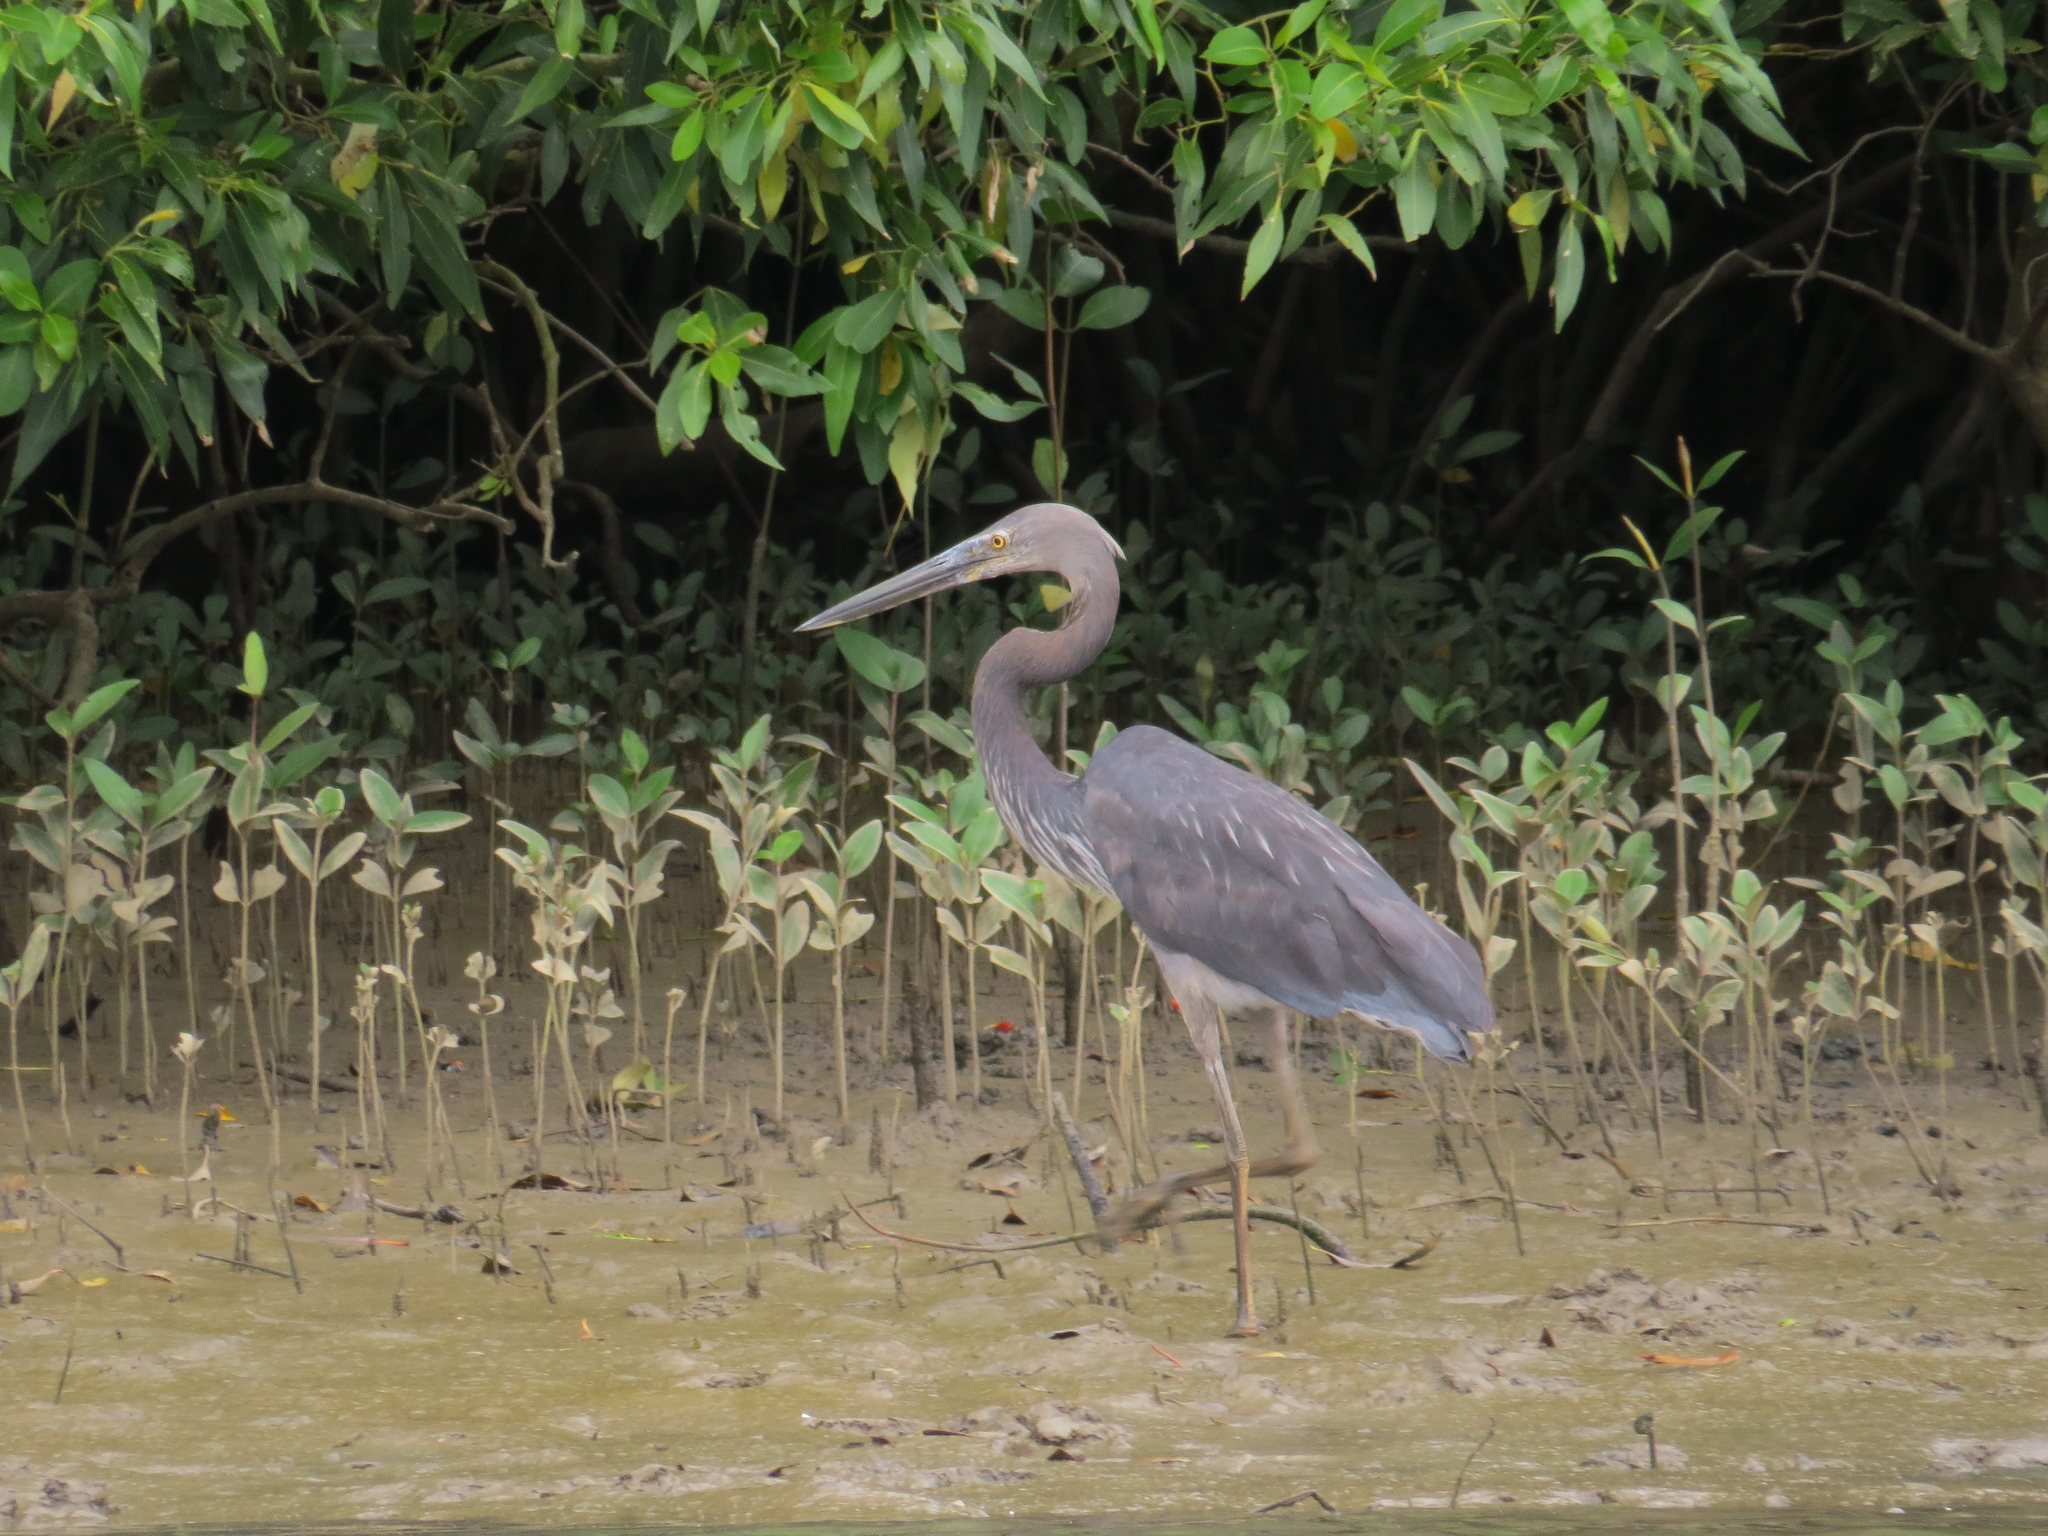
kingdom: Animalia
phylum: Chordata
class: Aves
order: Pelecaniformes
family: Ardeidae
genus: Ardea
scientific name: Ardea sumatrana
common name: Great-billed heron
